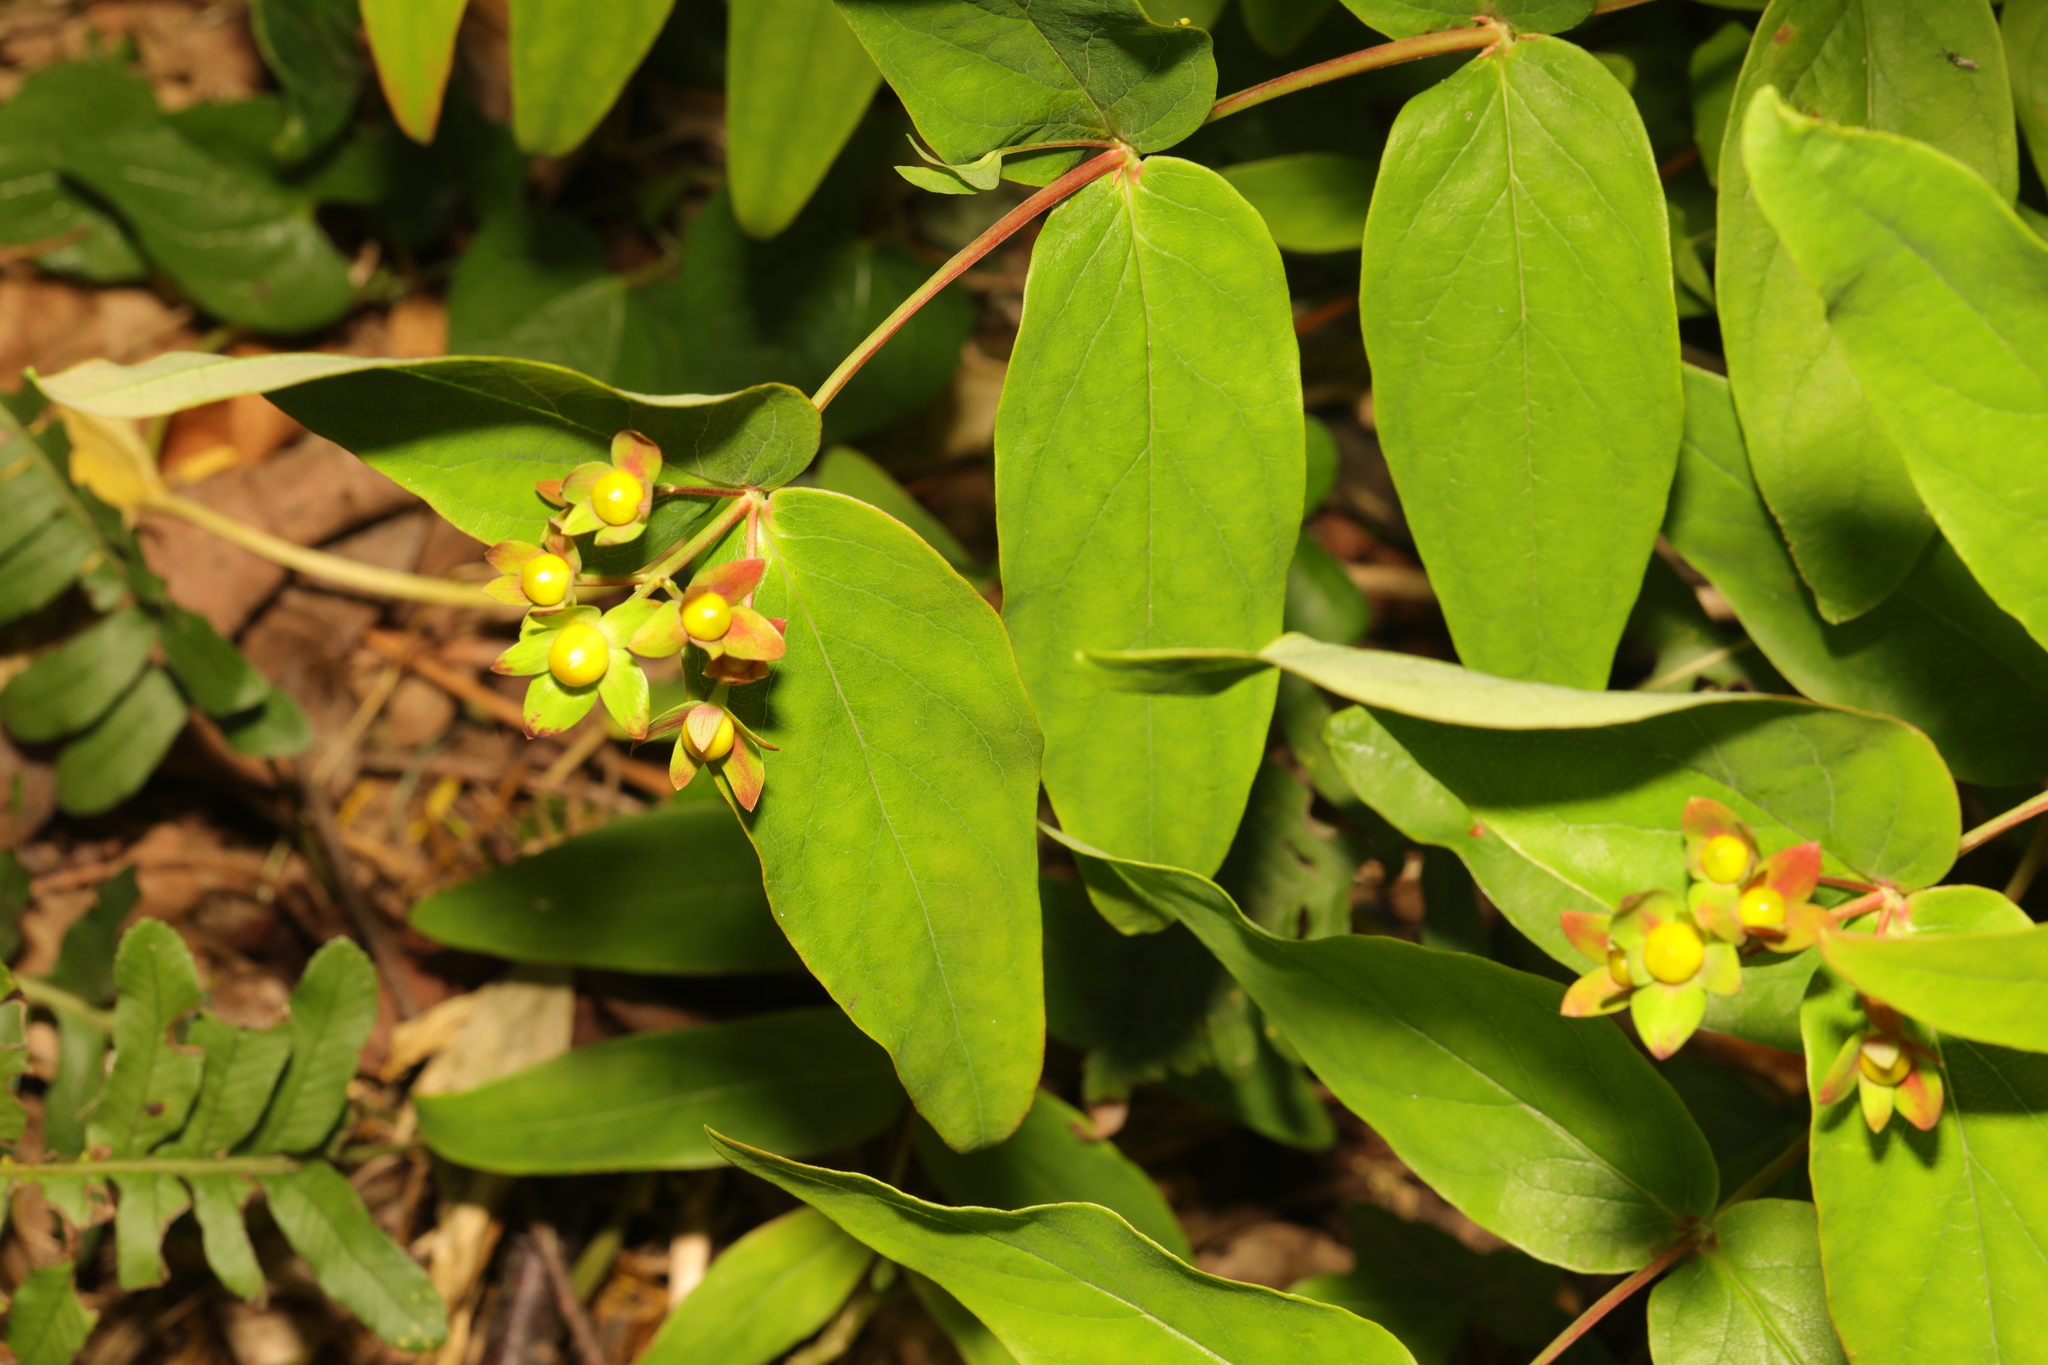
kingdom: Plantae
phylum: Tracheophyta
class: Magnoliopsida
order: Malpighiales
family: Hypericaceae
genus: Hypericum
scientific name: Hypericum androsaemum
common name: Sweet-amber
